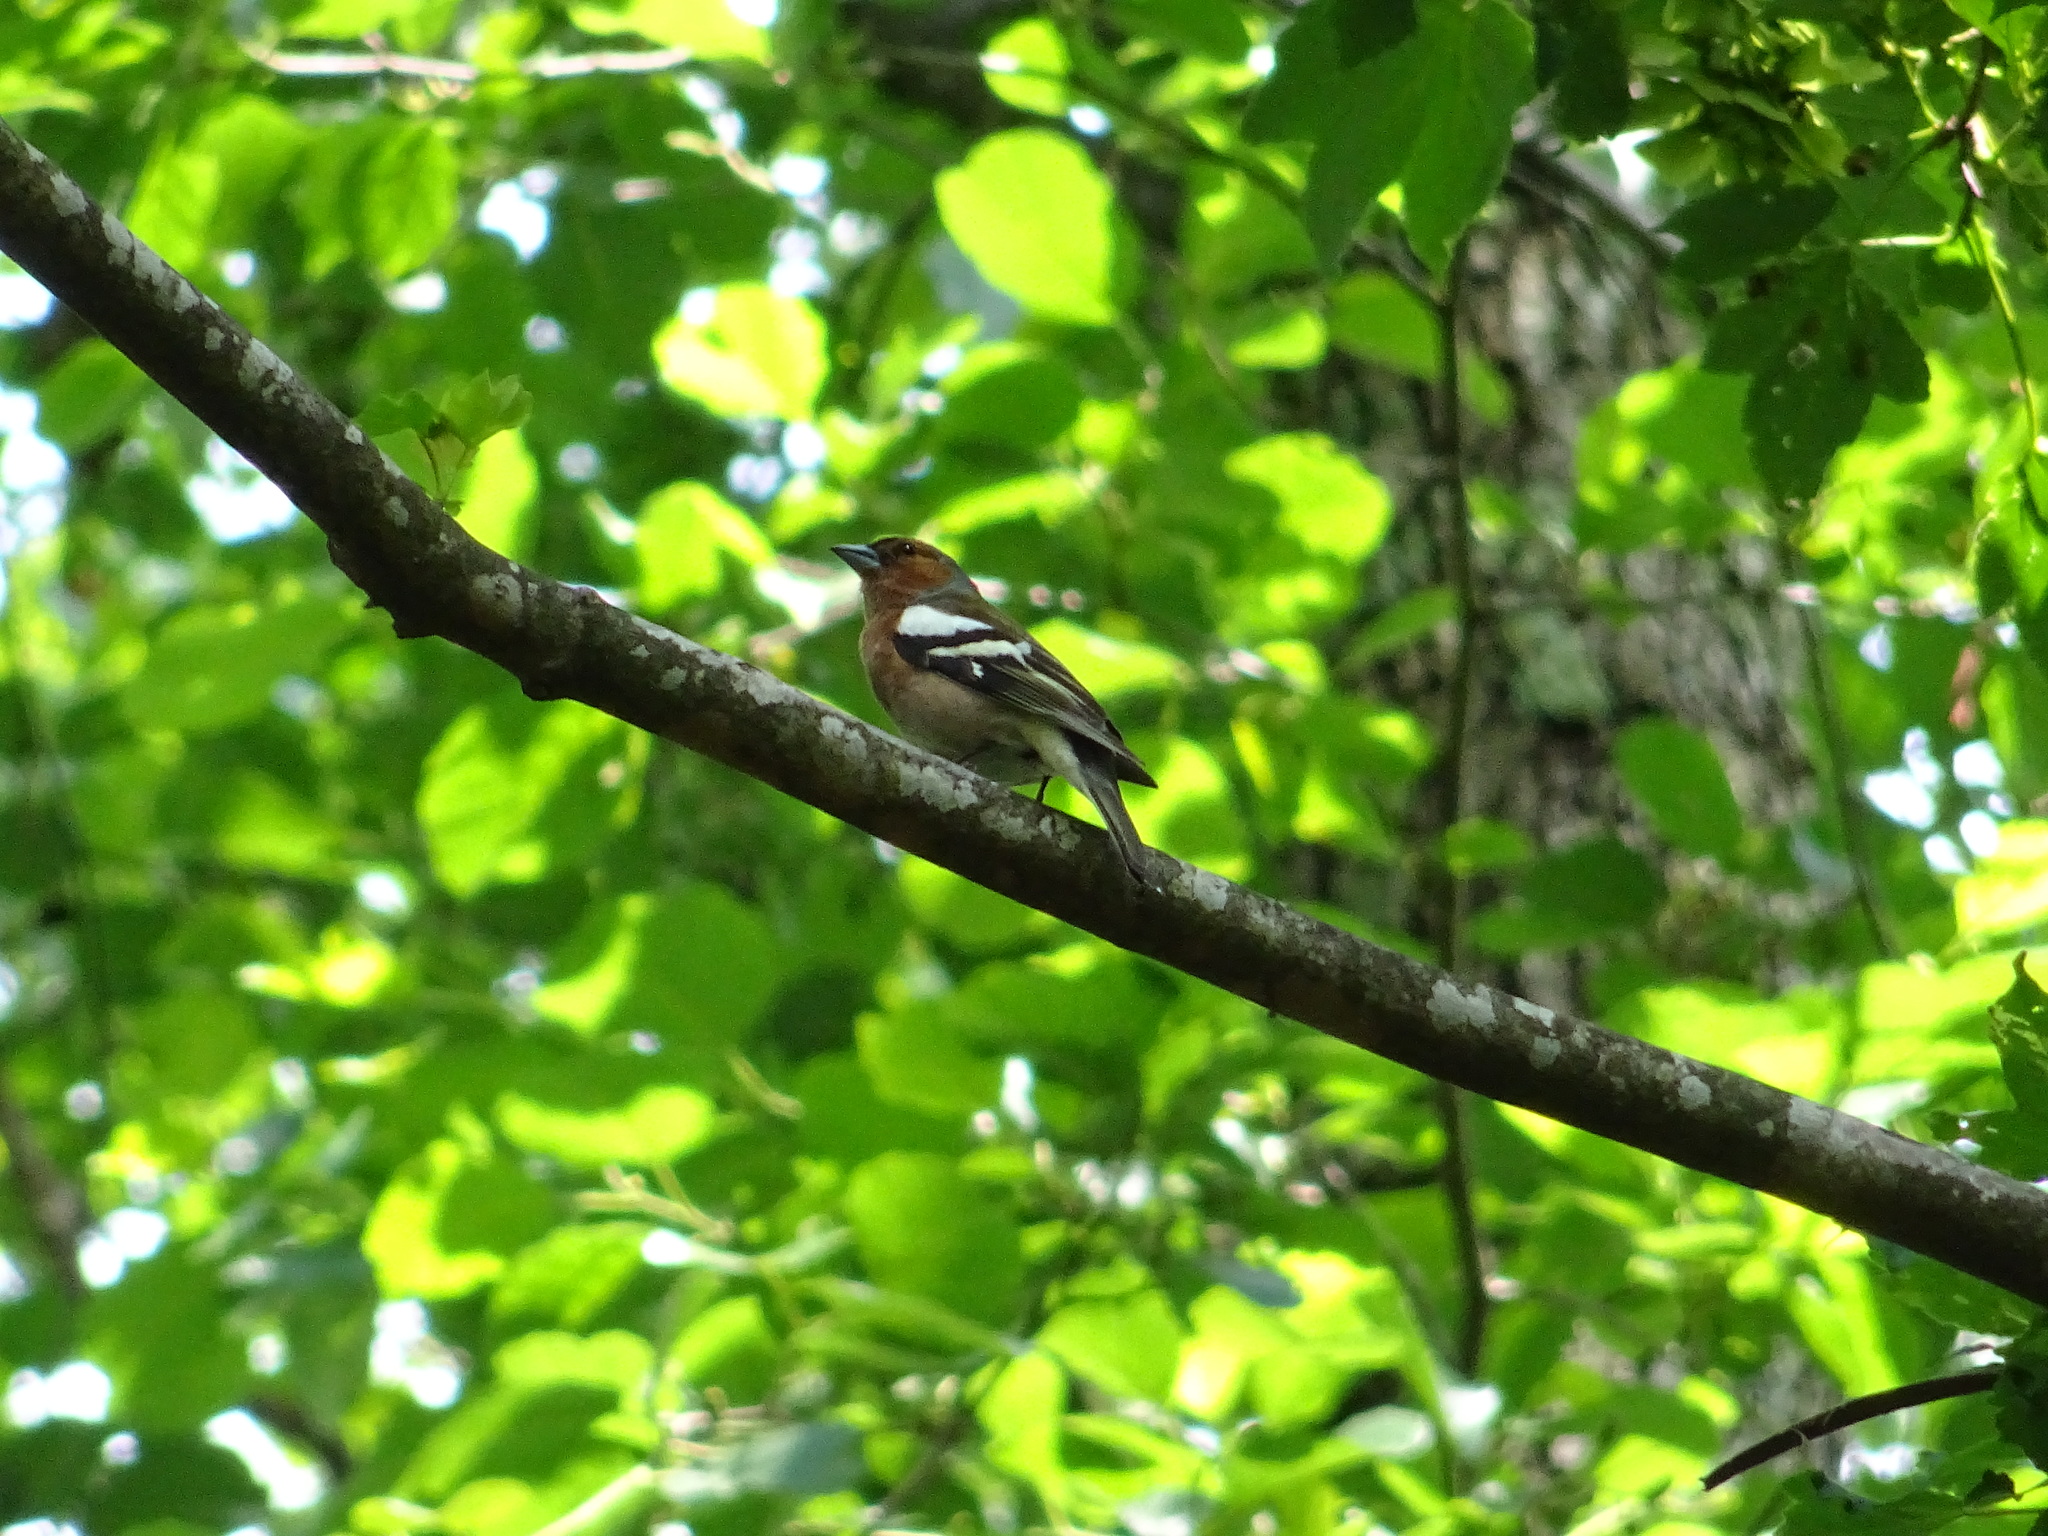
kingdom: Animalia
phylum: Chordata
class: Aves
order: Passeriformes
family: Fringillidae
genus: Fringilla
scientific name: Fringilla coelebs
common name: Common chaffinch
